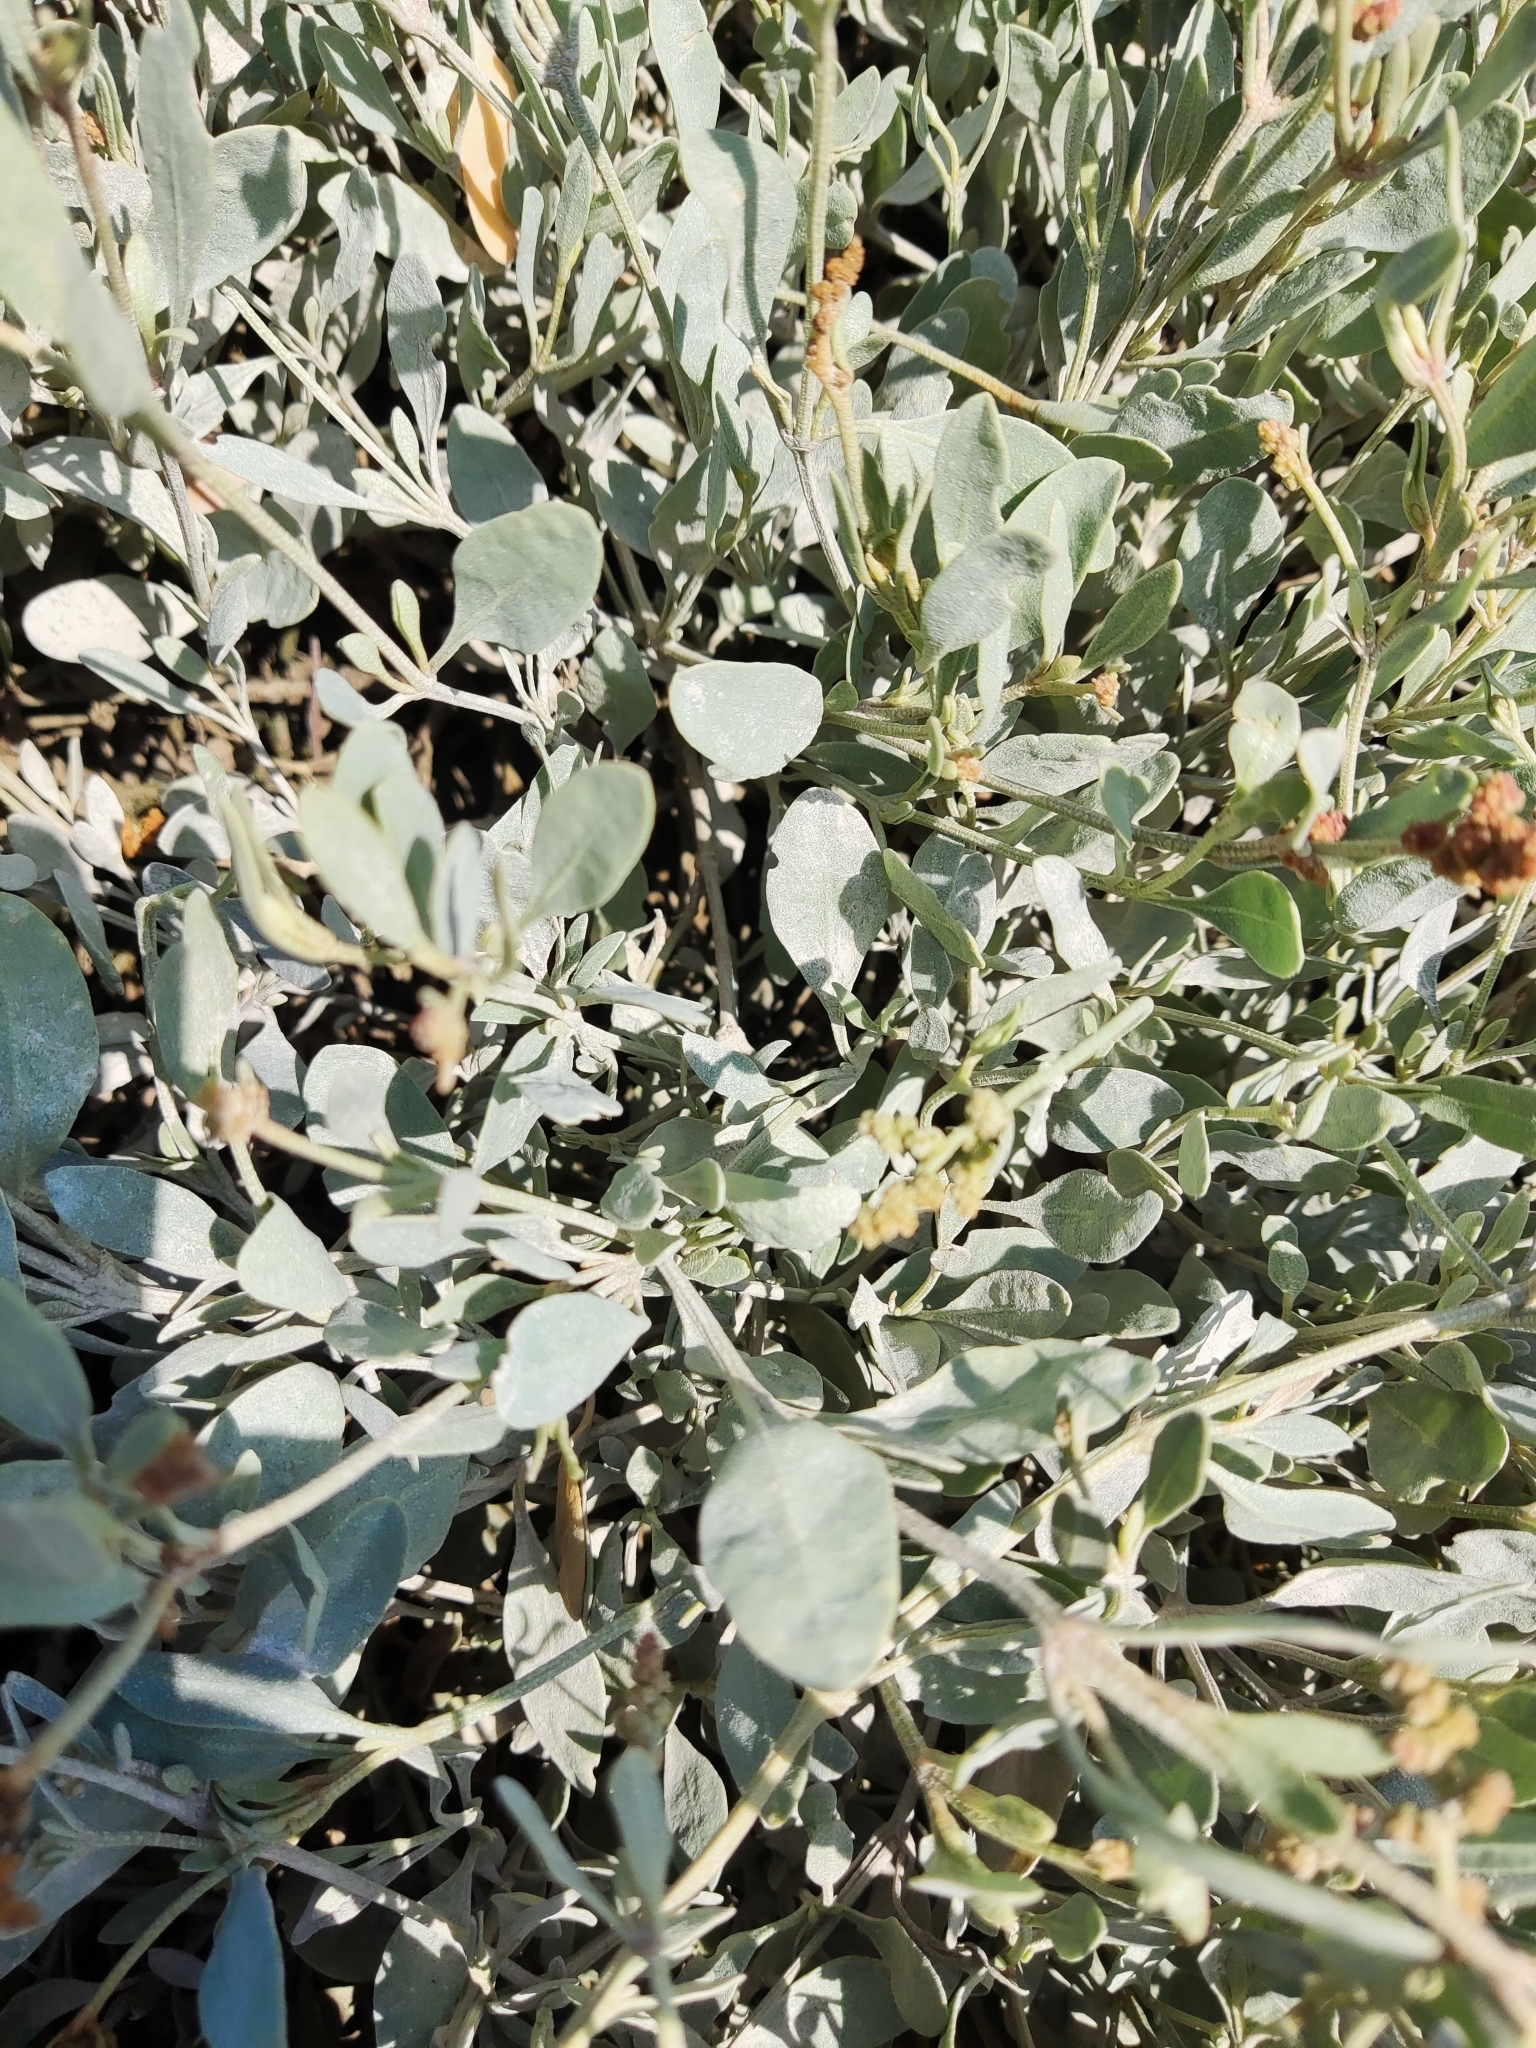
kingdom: Plantae
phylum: Tracheophyta
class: Magnoliopsida
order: Caryophyllales
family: Amaranthaceae
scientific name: Amaranthaceae
